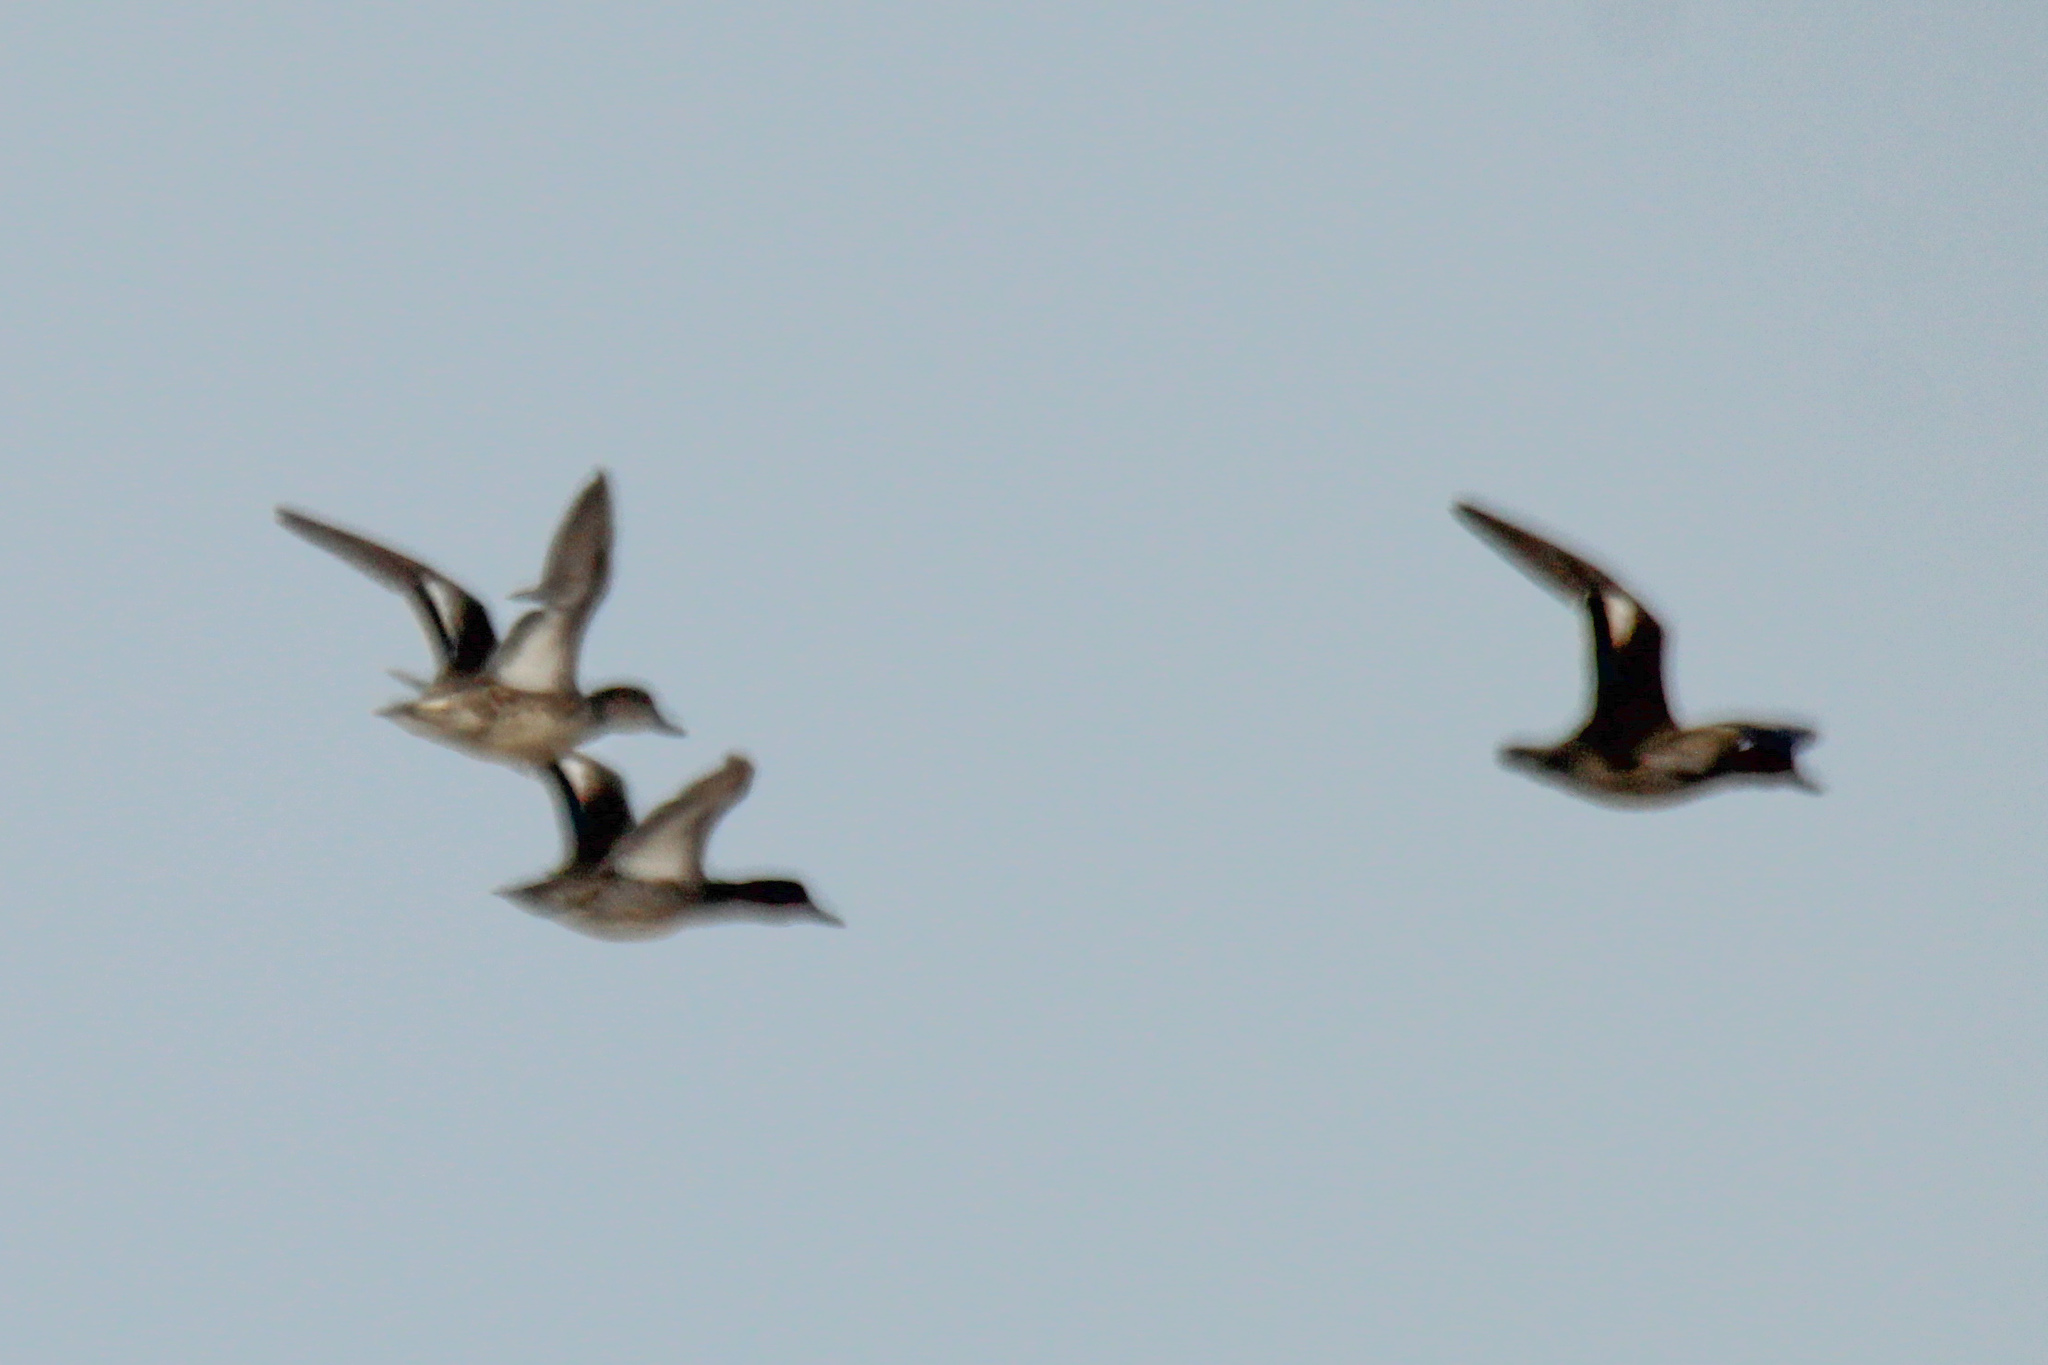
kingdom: Animalia
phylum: Chordata
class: Aves
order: Anseriformes
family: Anatidae
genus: Anas
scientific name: Anas crecca
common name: Eurasian teal
